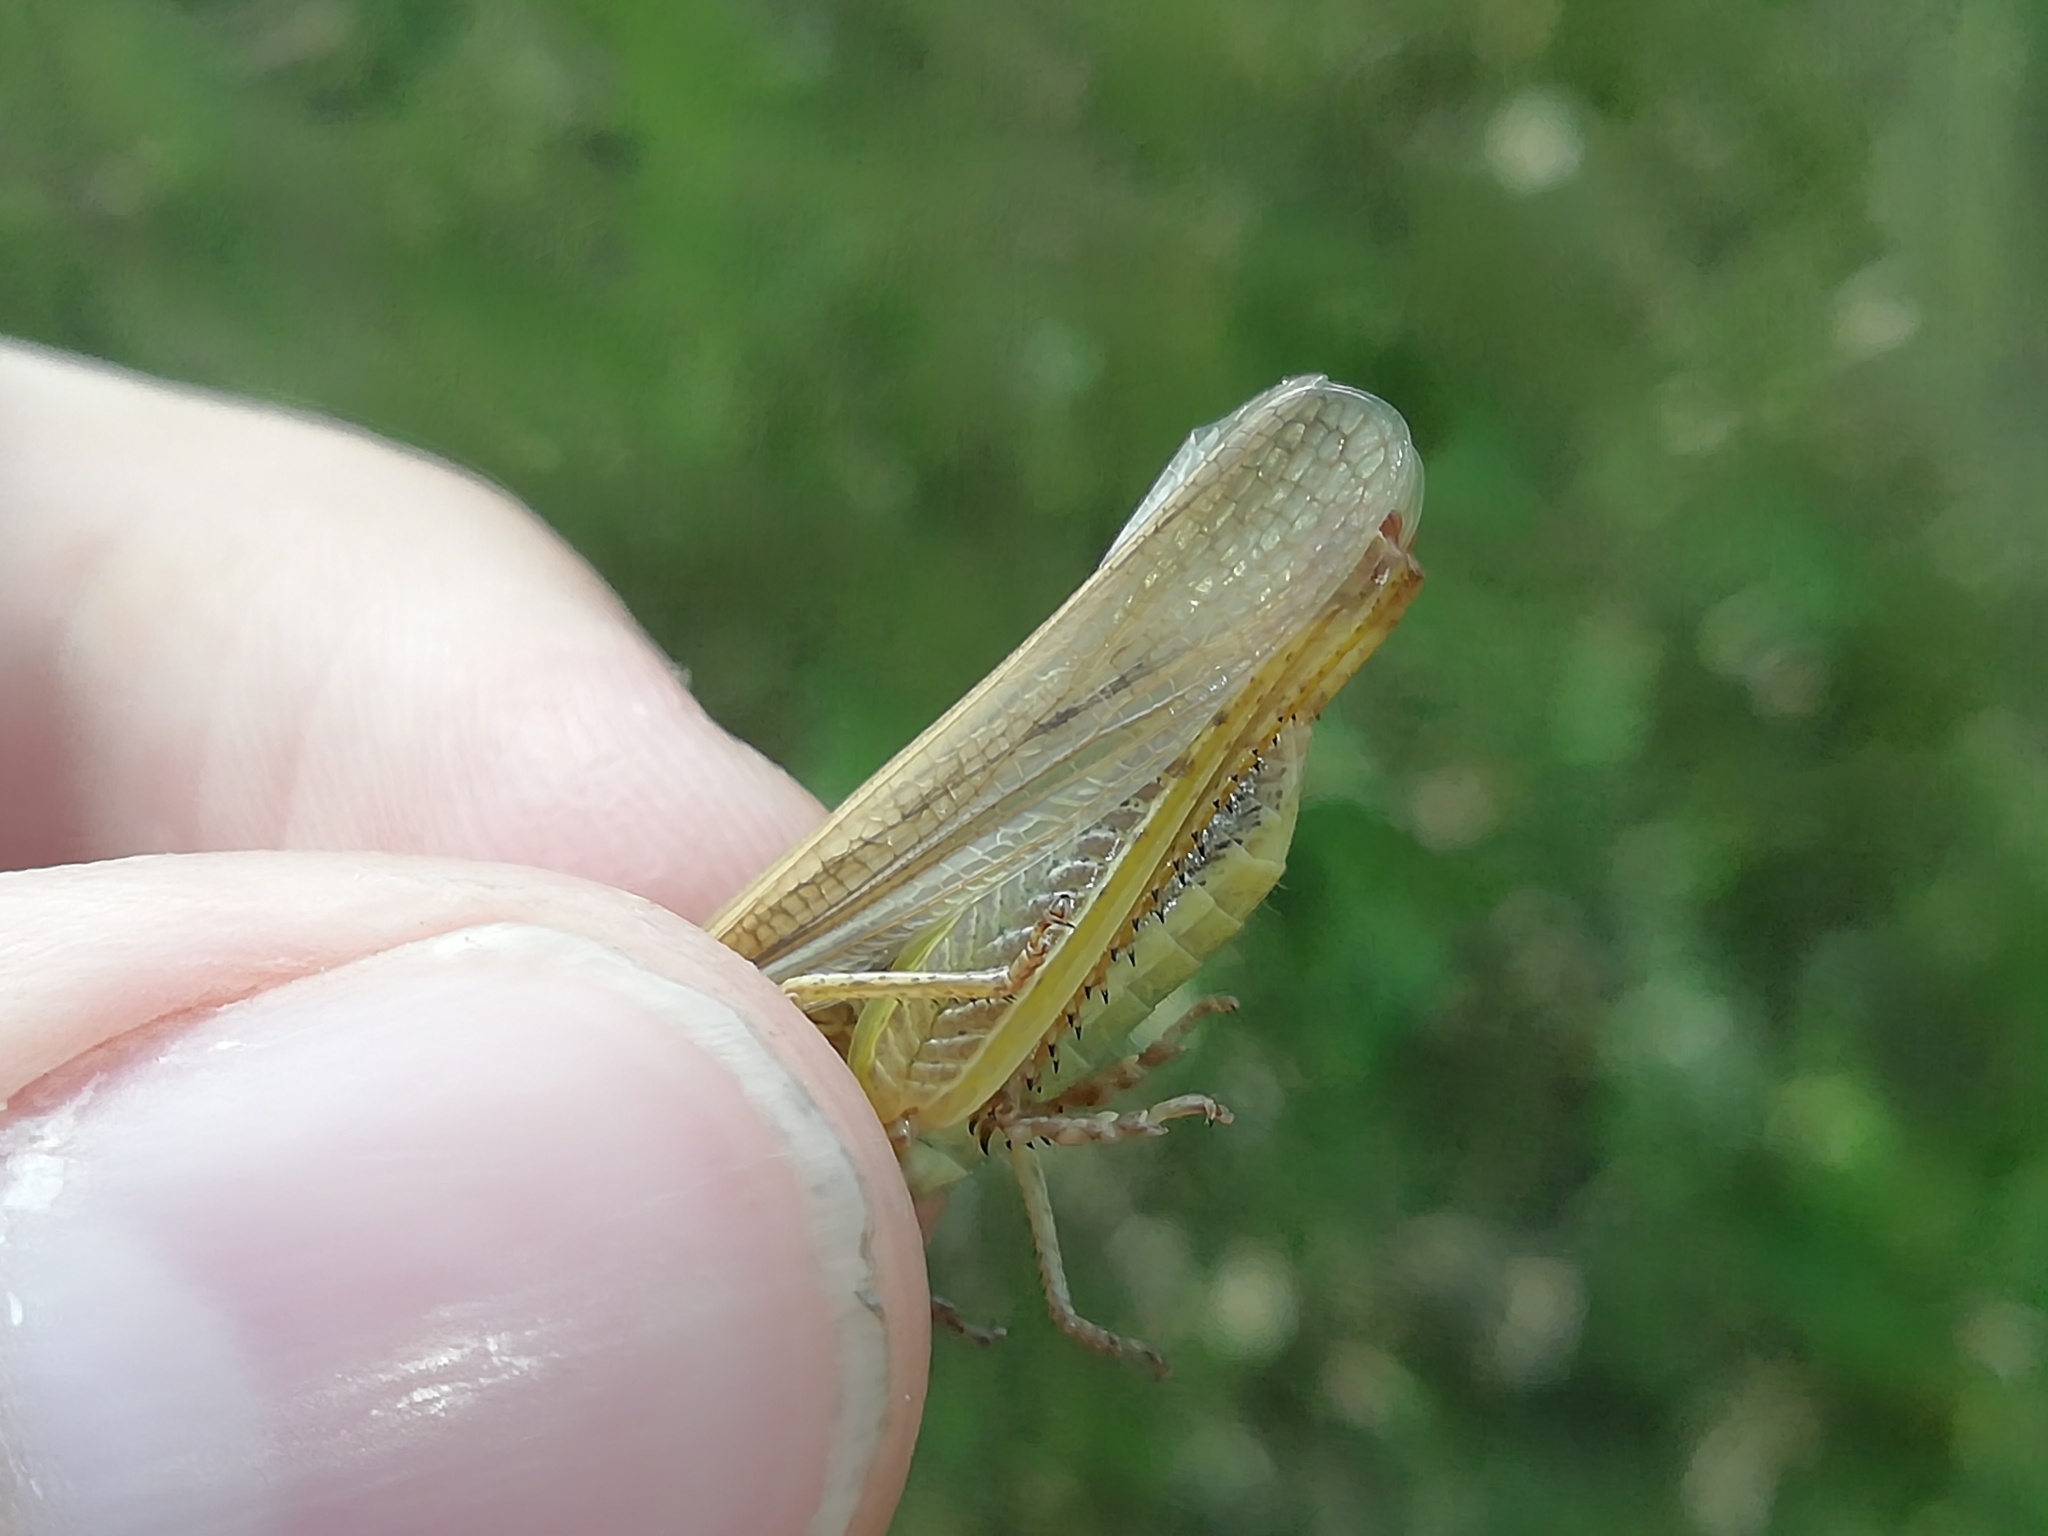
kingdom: Animalia
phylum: Arthropoda
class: Insecta
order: Orthoptera
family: Acrididae
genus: Stauroderus
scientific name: Stauroderus scalaris
